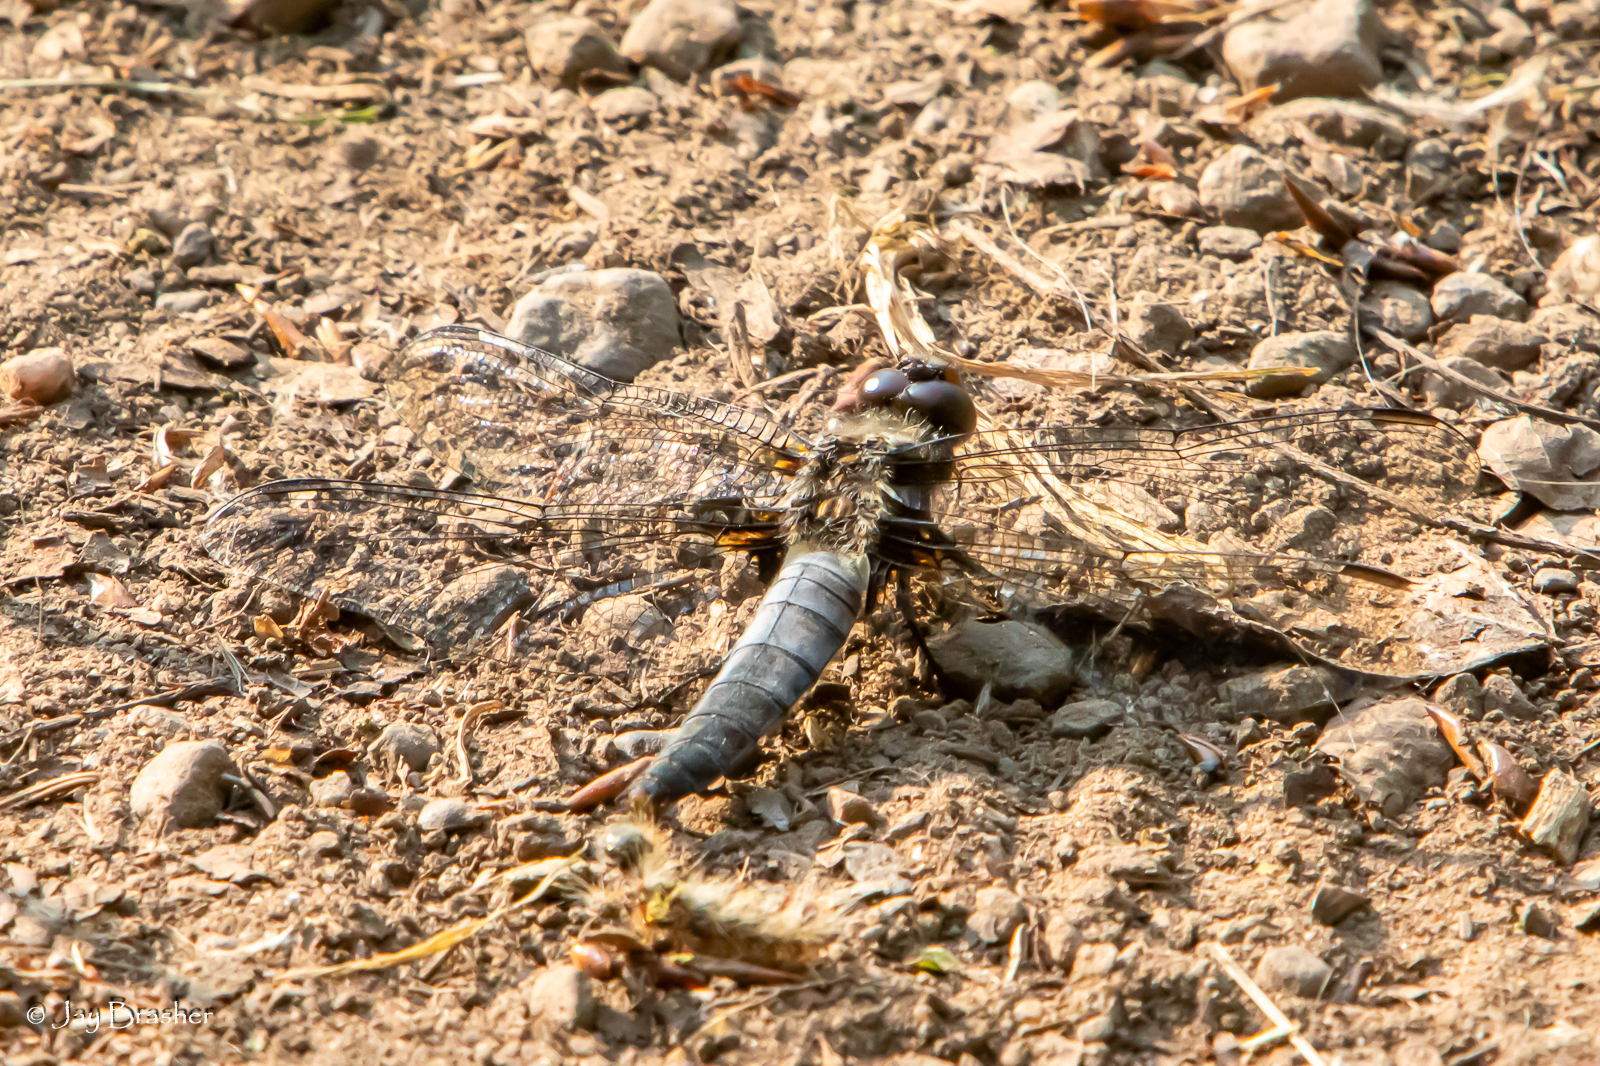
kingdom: Animalia
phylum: Arthropoda
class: Insecta
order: Odonata
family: Libellulidae
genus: Ladona
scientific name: Ladona julia
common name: Chalk-fronted corporal
